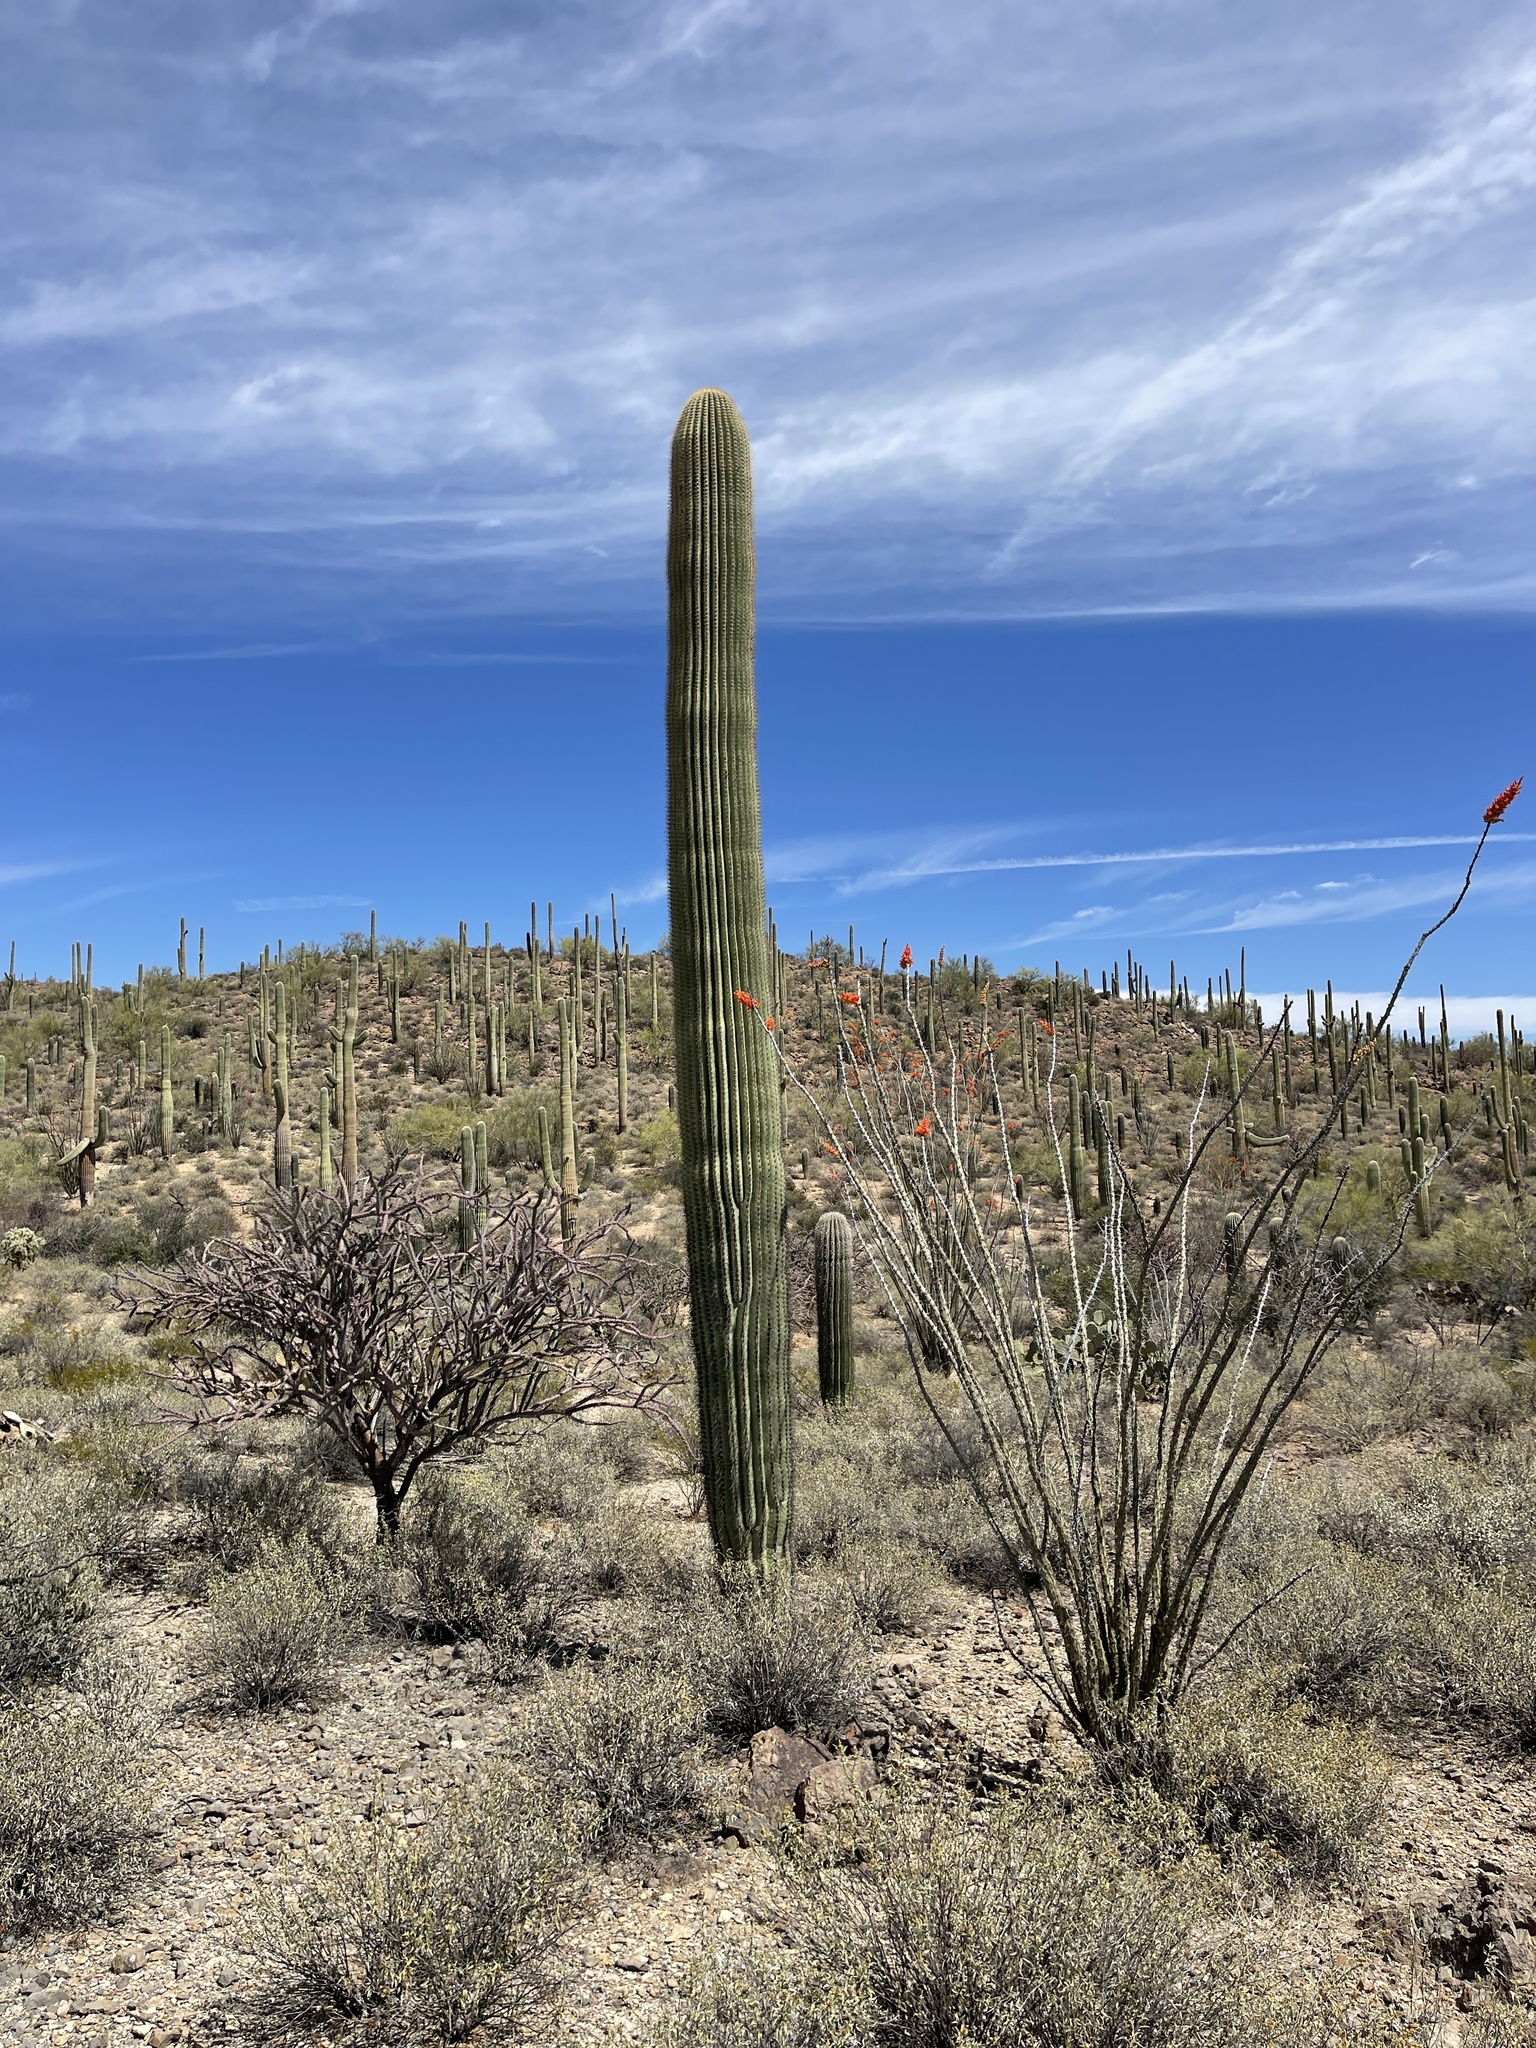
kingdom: Plantae
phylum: Tracheophyta
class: Magnoliopsida
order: Caryophyllales
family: Cactaceae
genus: Carnegiea
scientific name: Carnegiea gigantea
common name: Saguaro
